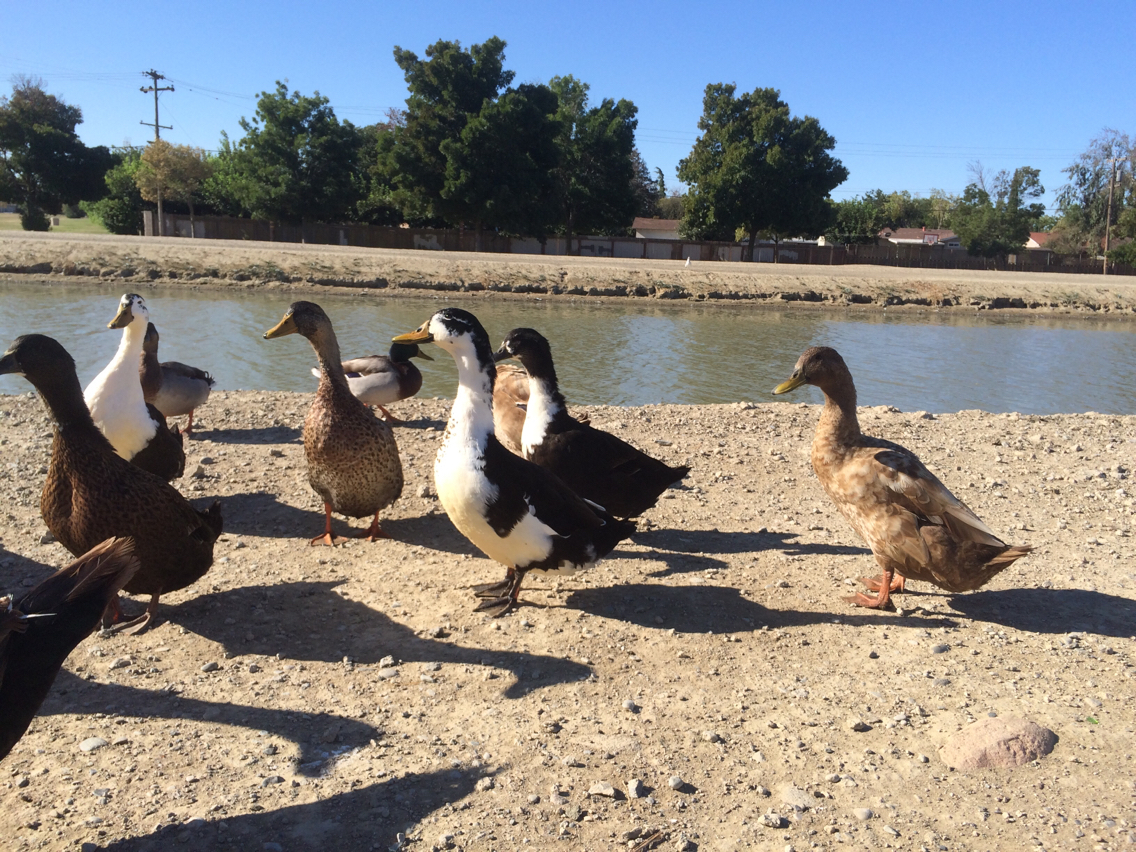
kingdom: Animalia
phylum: Chordata
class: Aves
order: Anseriformes
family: Anatidae
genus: Anas
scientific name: Anas platyrhynchos
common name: Mallard
